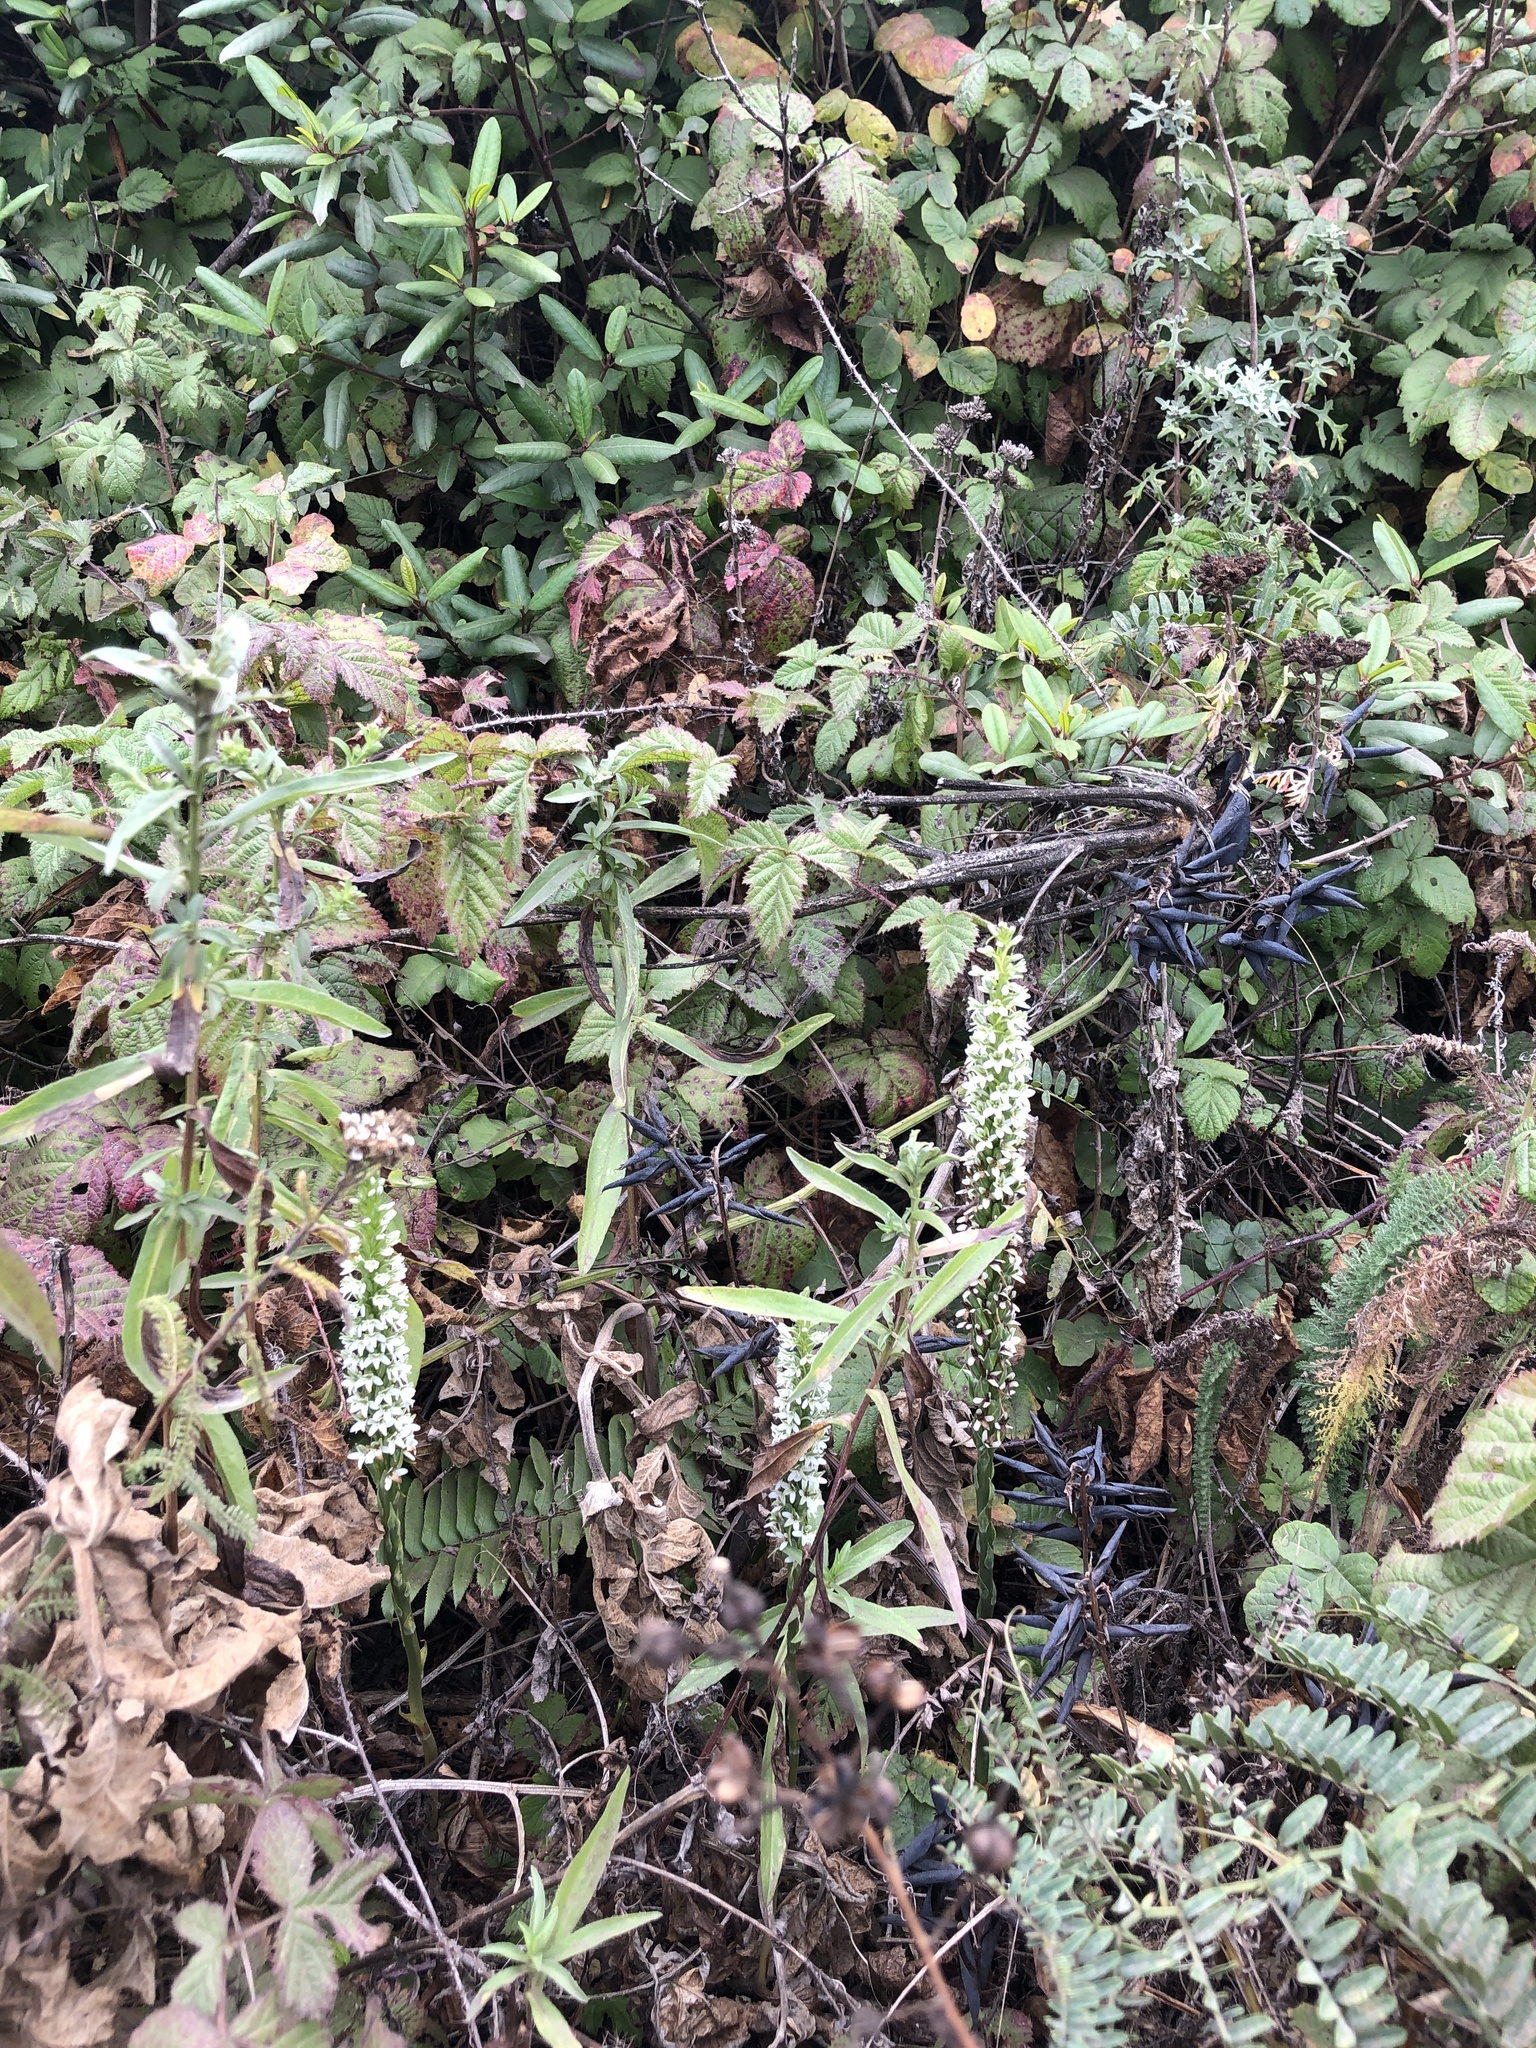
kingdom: Plantae
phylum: Tracheophyta
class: Liliopsida
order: Asparagales
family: Orchidaceae
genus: Platanthera
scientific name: Platanthera elegans
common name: Coast piperia
